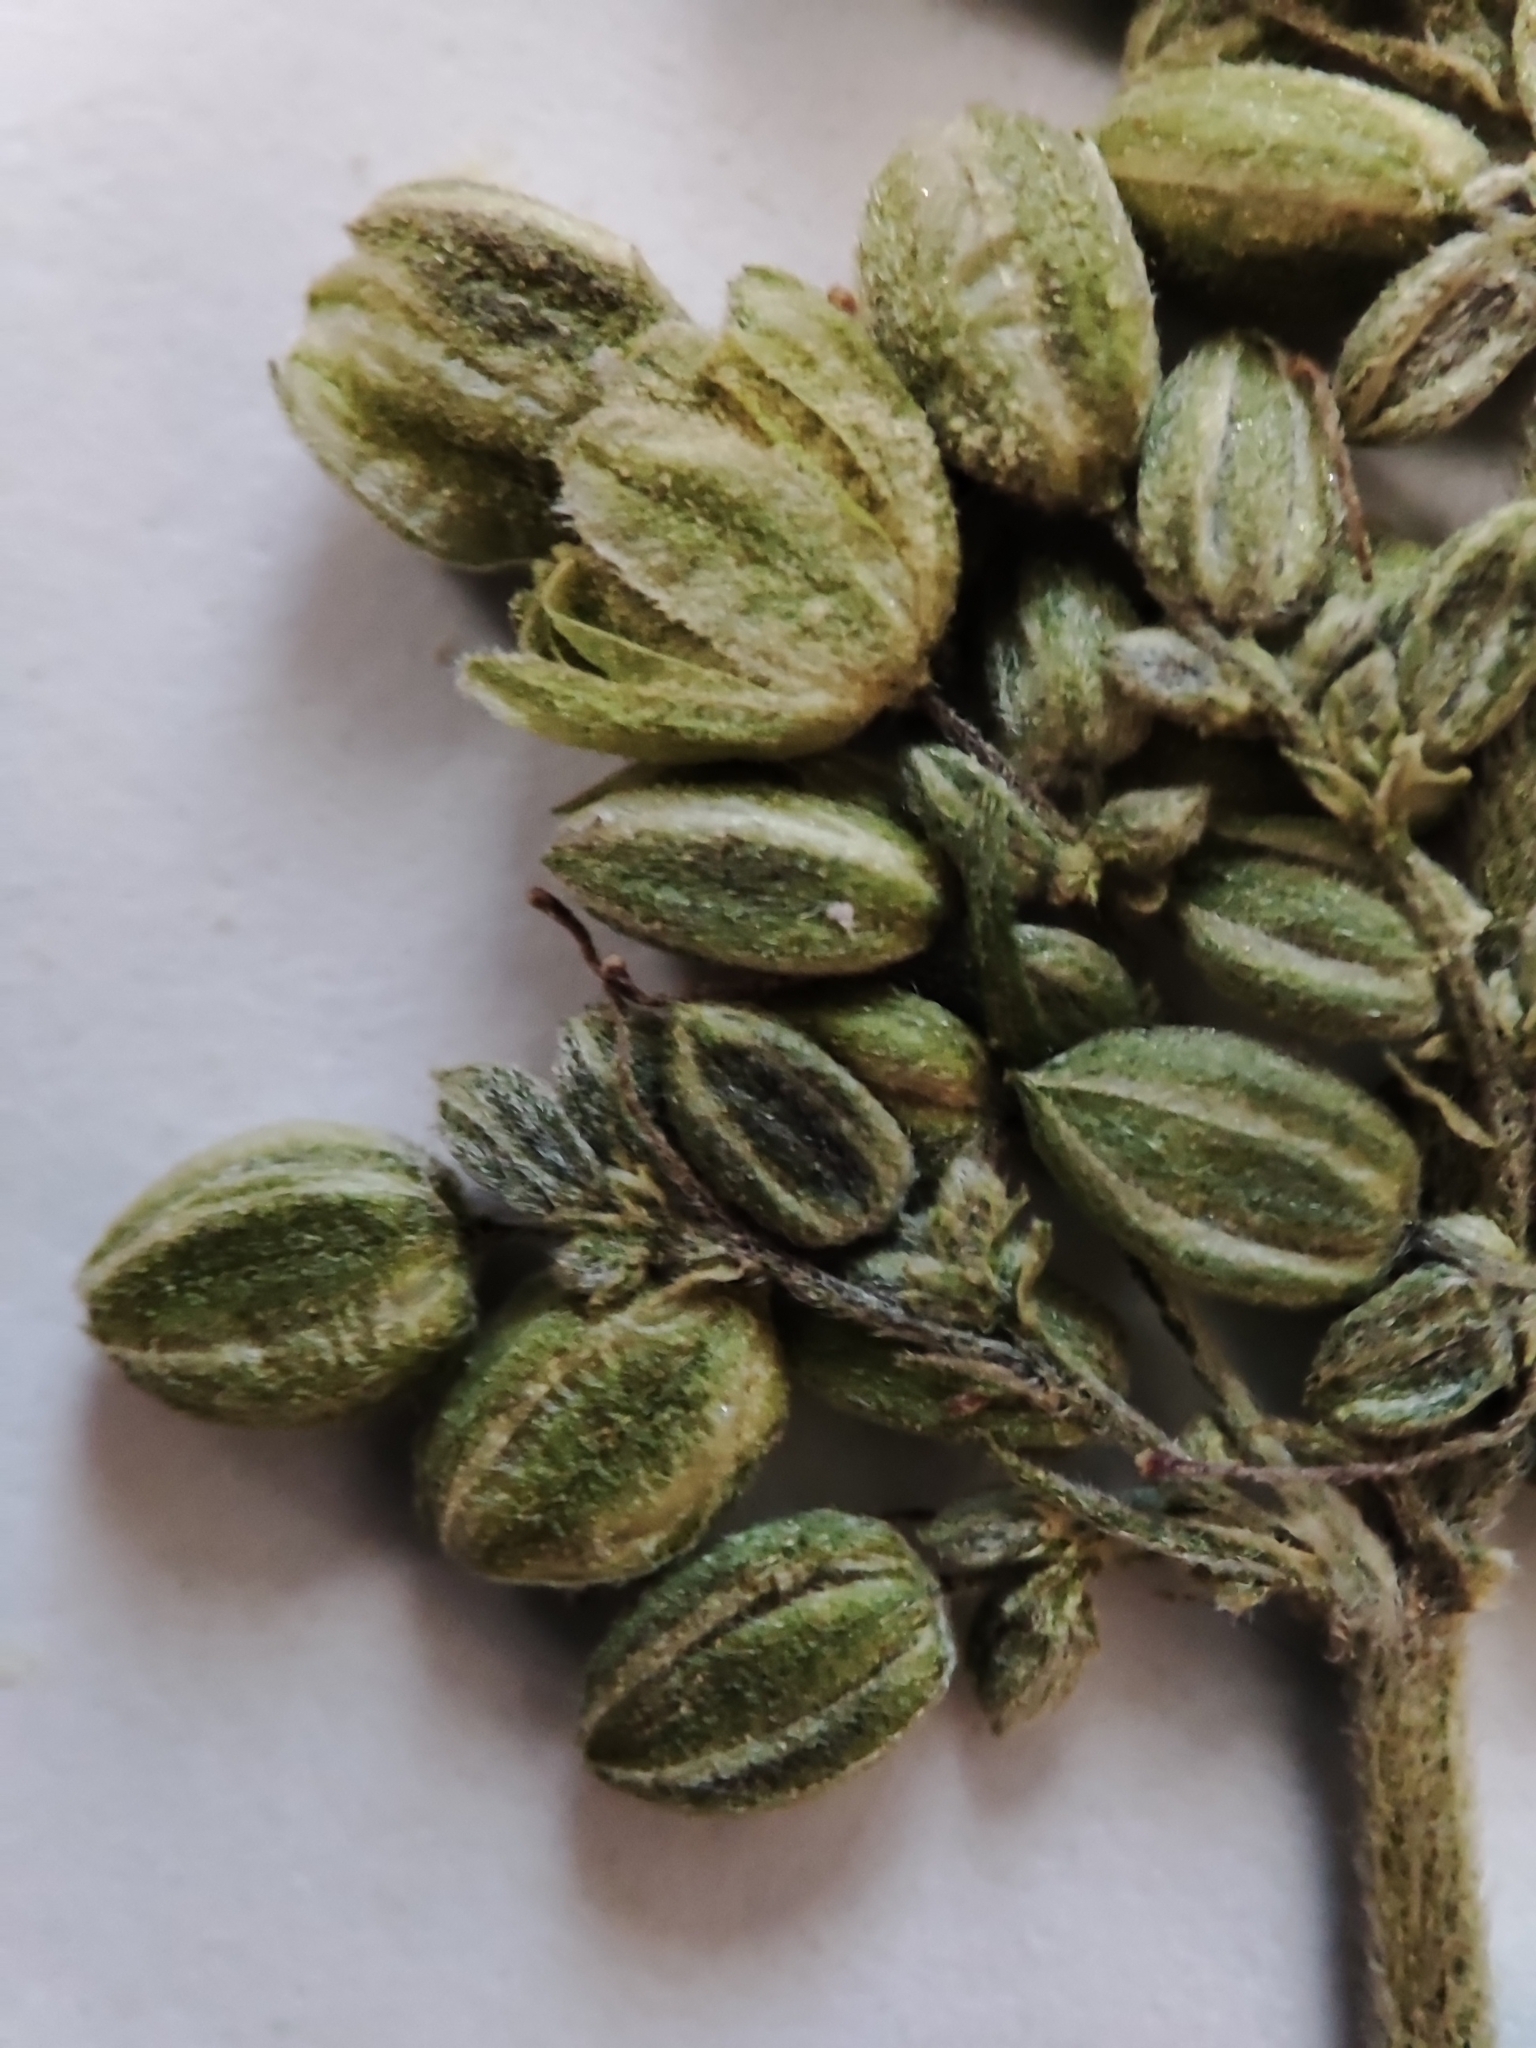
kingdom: Plantae
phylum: Tracheophyta
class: Magnoliopsida
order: Rosales
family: Cannabaceae
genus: Cannabis
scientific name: Cannabis sativa
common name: Hemp
